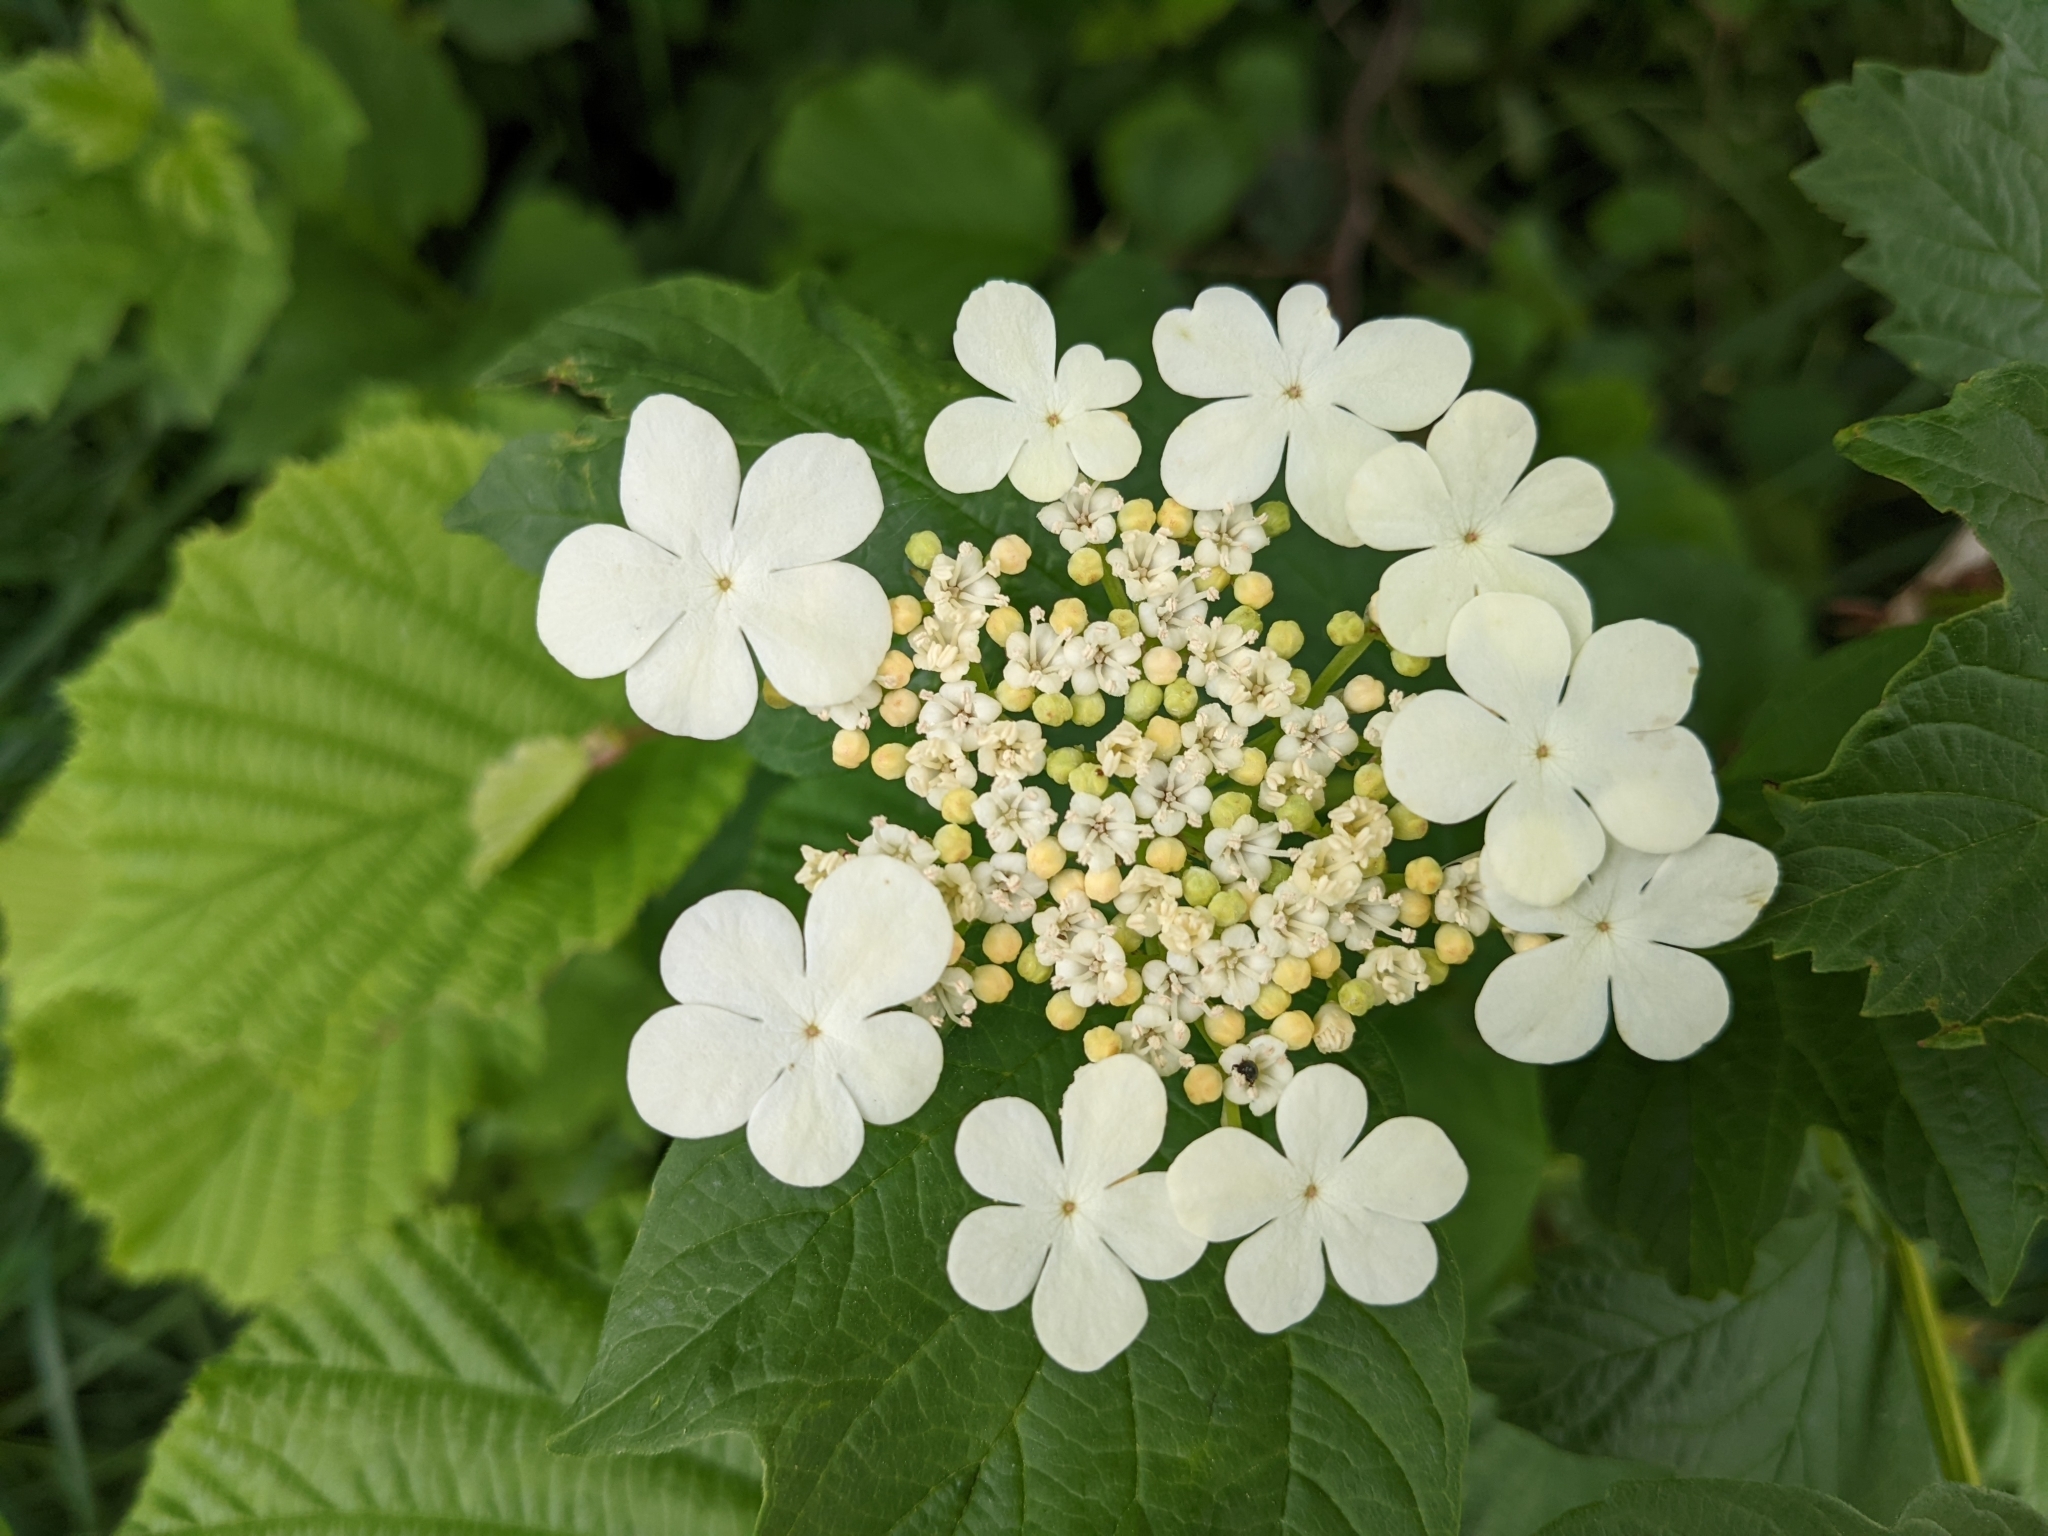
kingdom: Plantae
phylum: Tracheophyta
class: Magnoliopsida
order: Dipsacales
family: Viburnaceae
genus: Viburnum
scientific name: Viburnum opulus
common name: Guelder-rose
